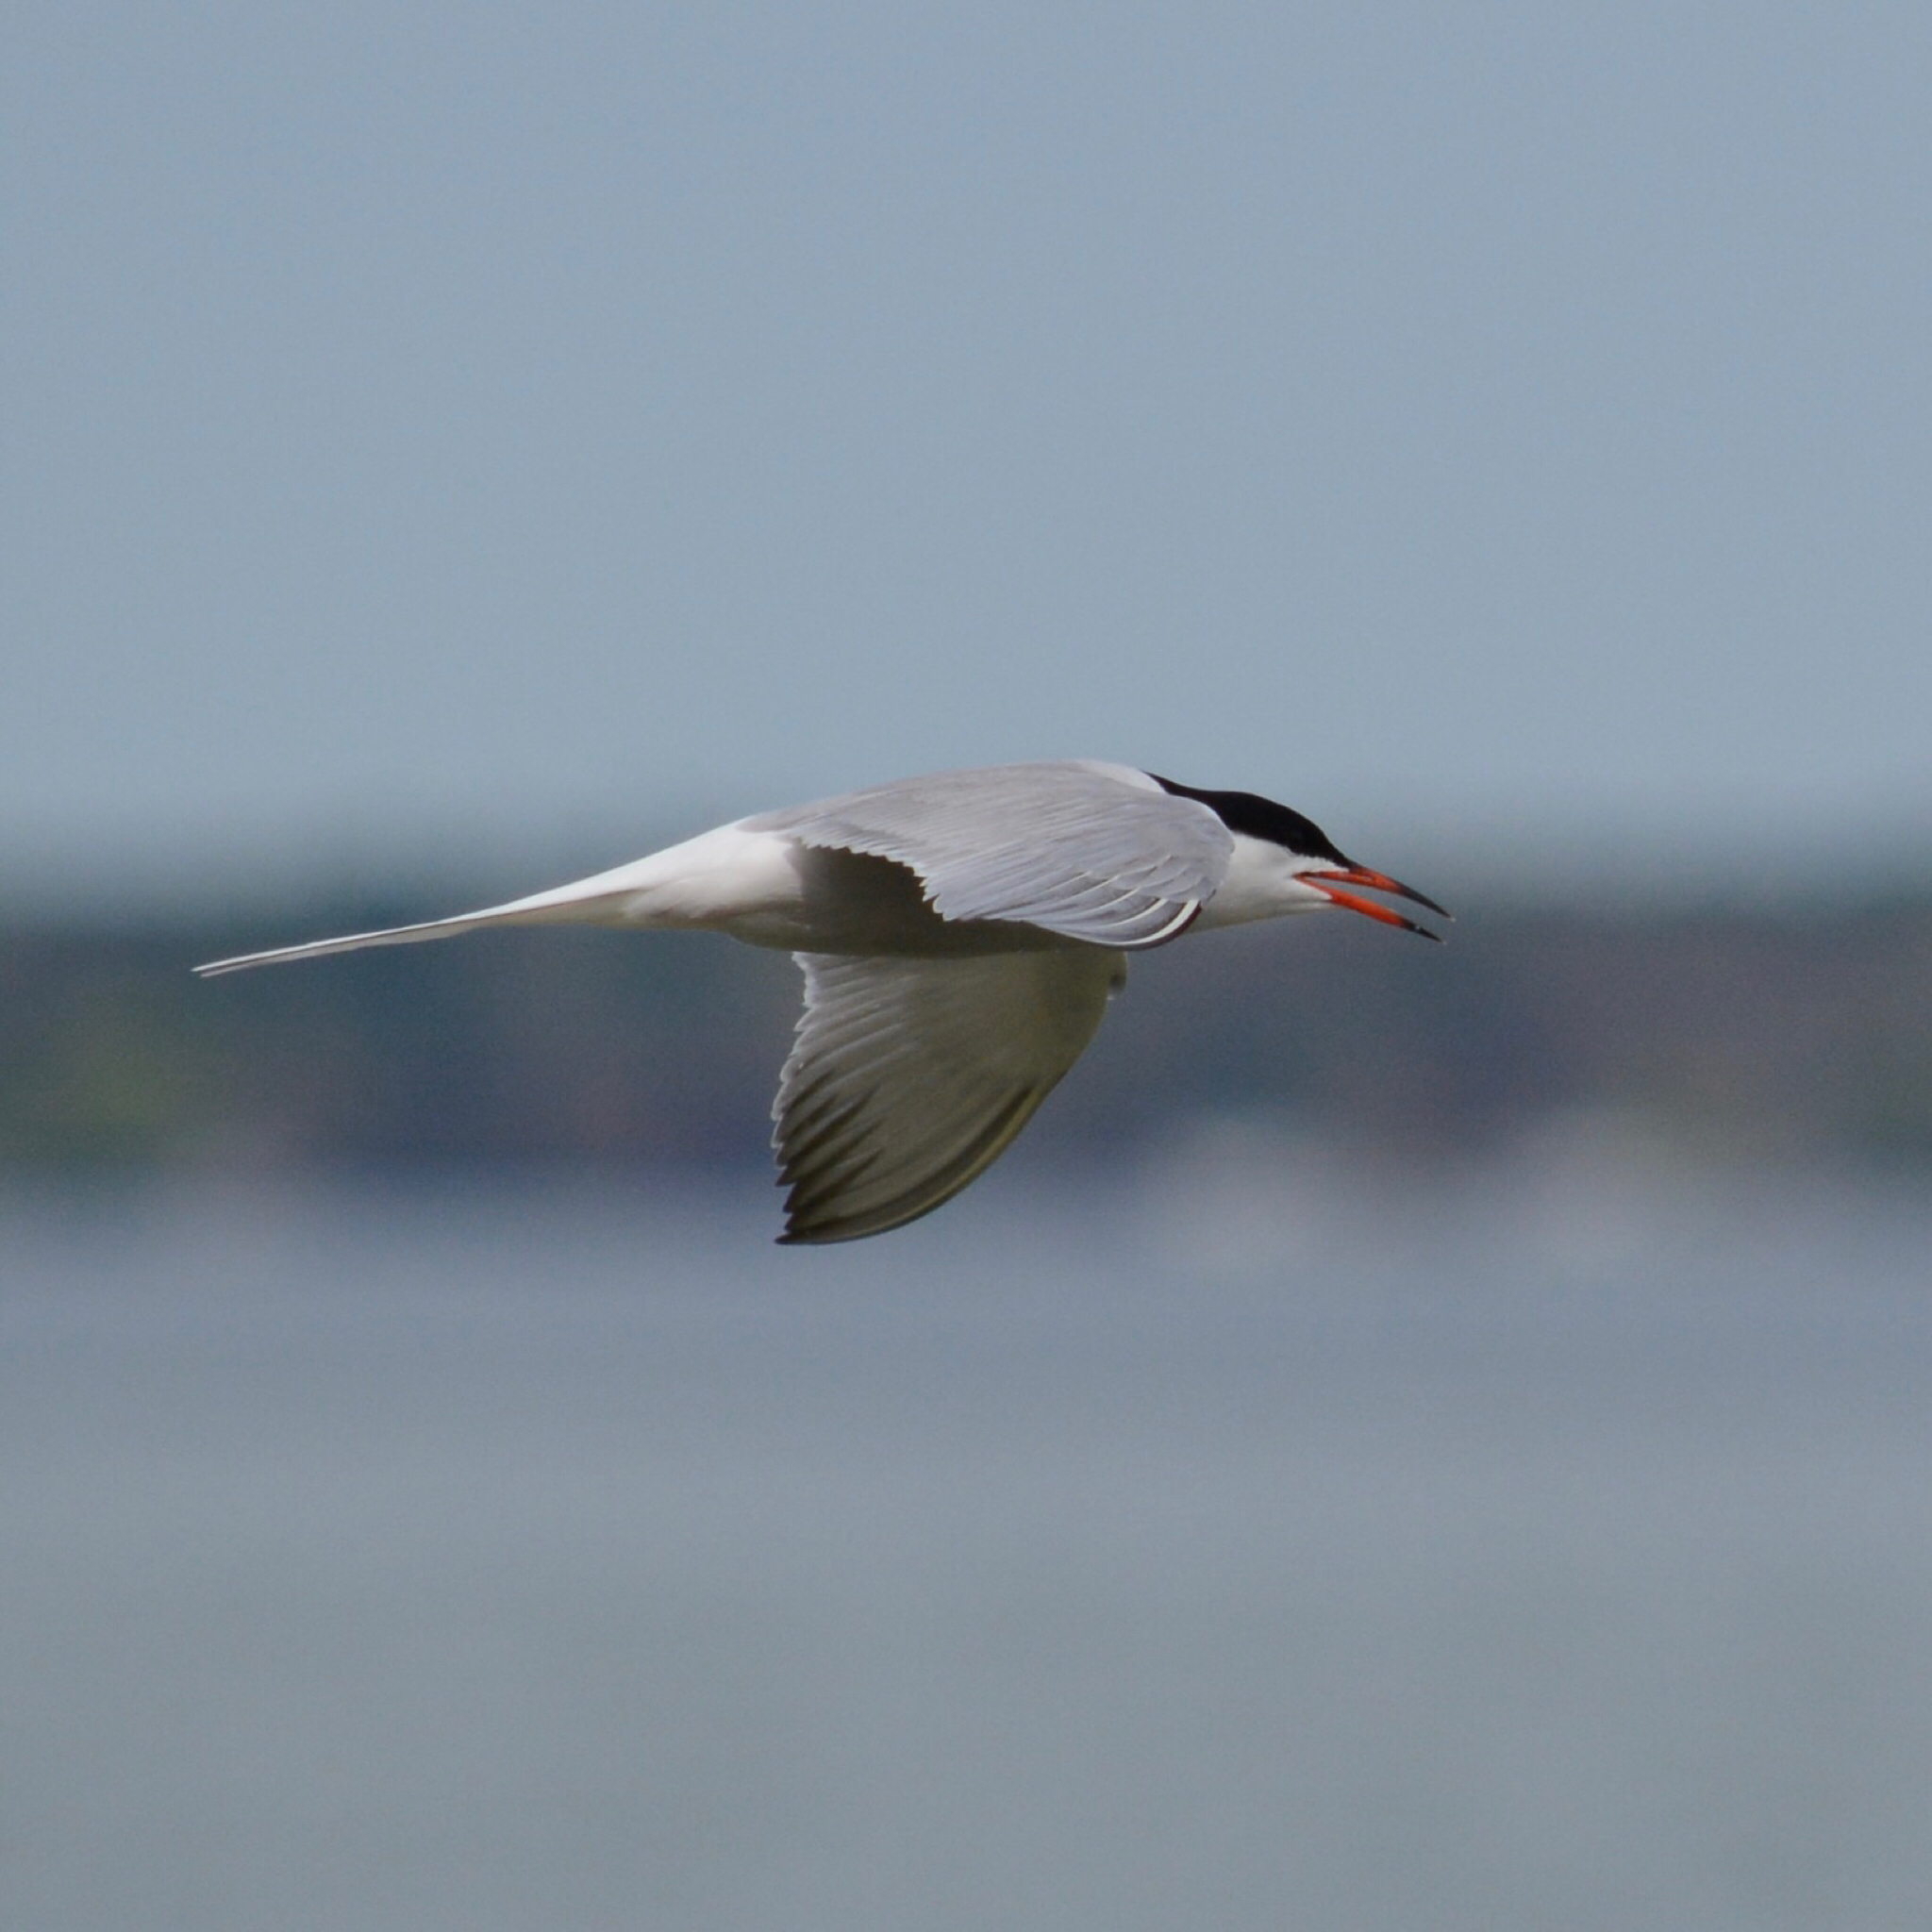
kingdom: Animalia
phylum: Chordata
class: Aves
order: Charadriiformes
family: Laridae
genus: Sterna
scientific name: Sterna hirundo
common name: Common tern
